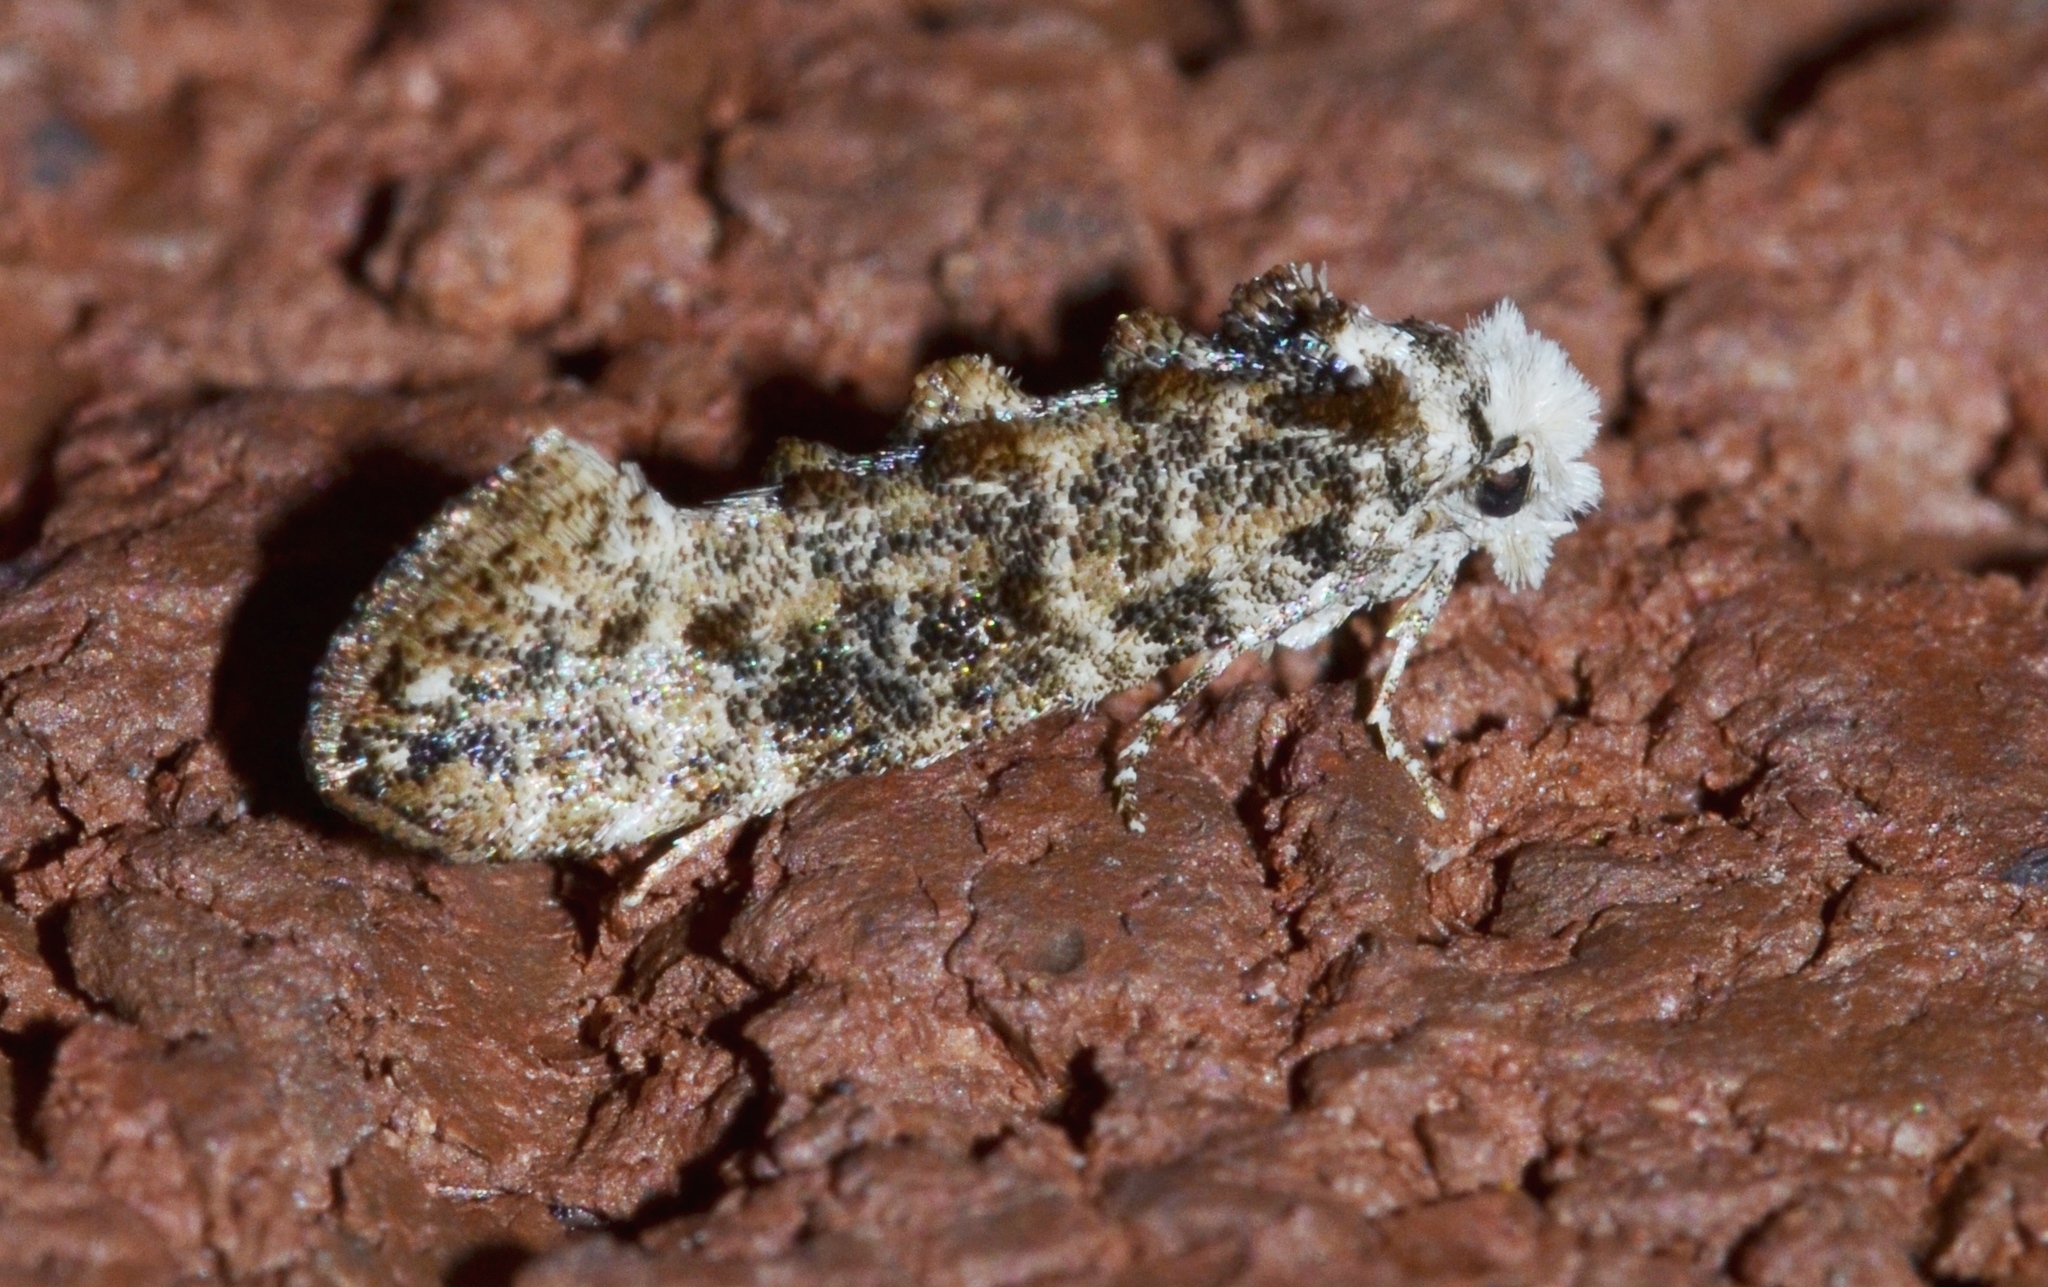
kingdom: Animalia
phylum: Arthropoda
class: Insecta
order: Lepidoptera
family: Tineidae
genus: Xylesthia
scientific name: Xylesthia pruniramiella
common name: Clemens' bark moth
